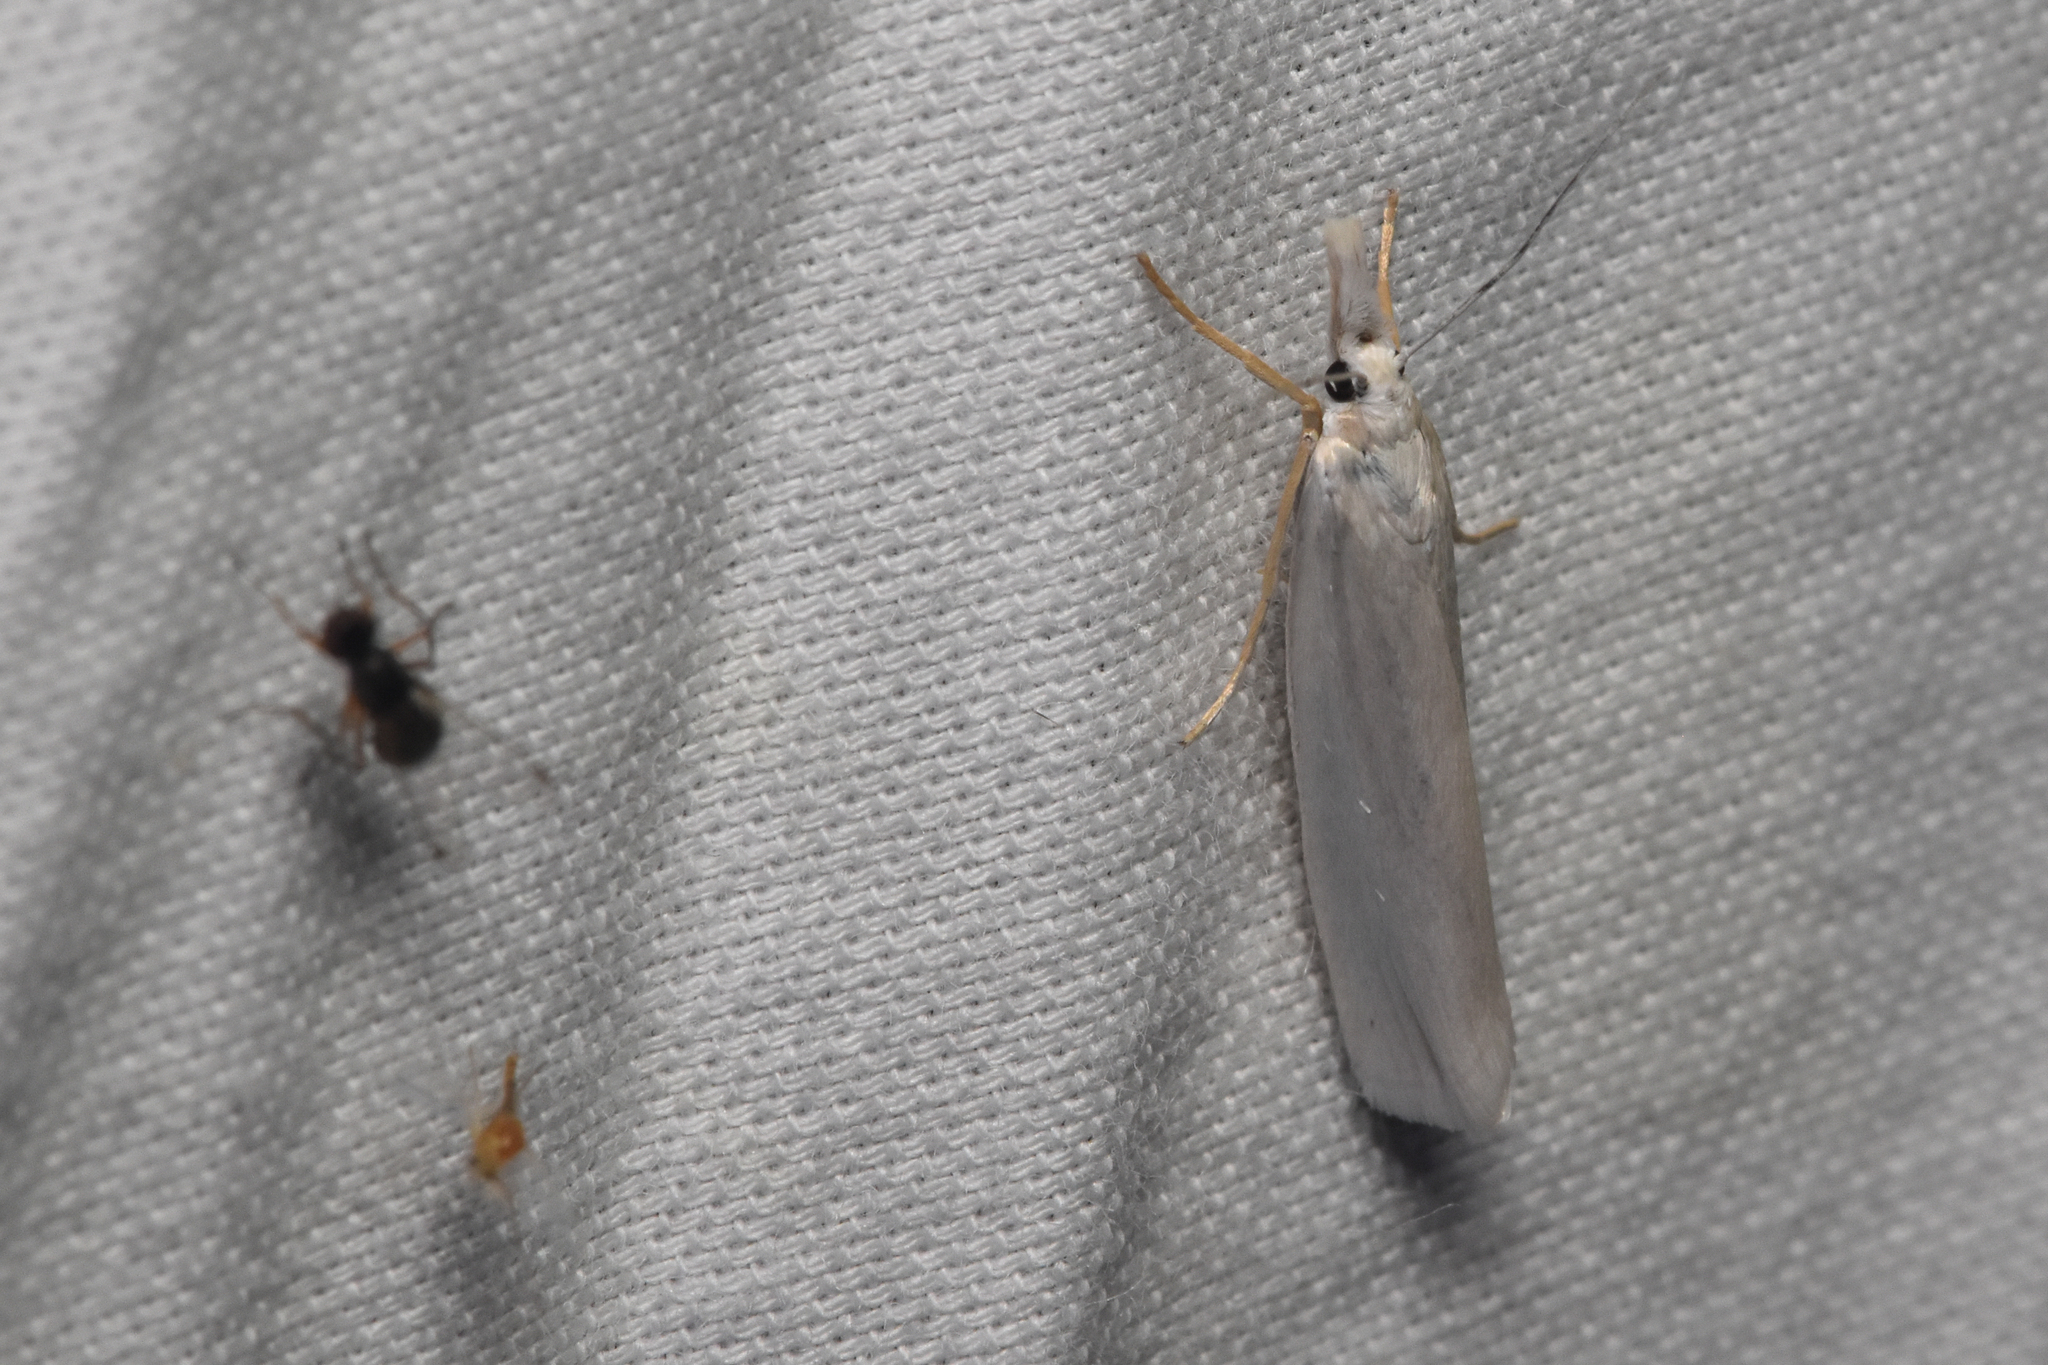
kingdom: Animalia
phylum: Arthropoda
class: Insecta
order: Lepidoptera
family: Crambidae
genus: Crambus
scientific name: Crambus perlellus
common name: Yellow satin veneer
